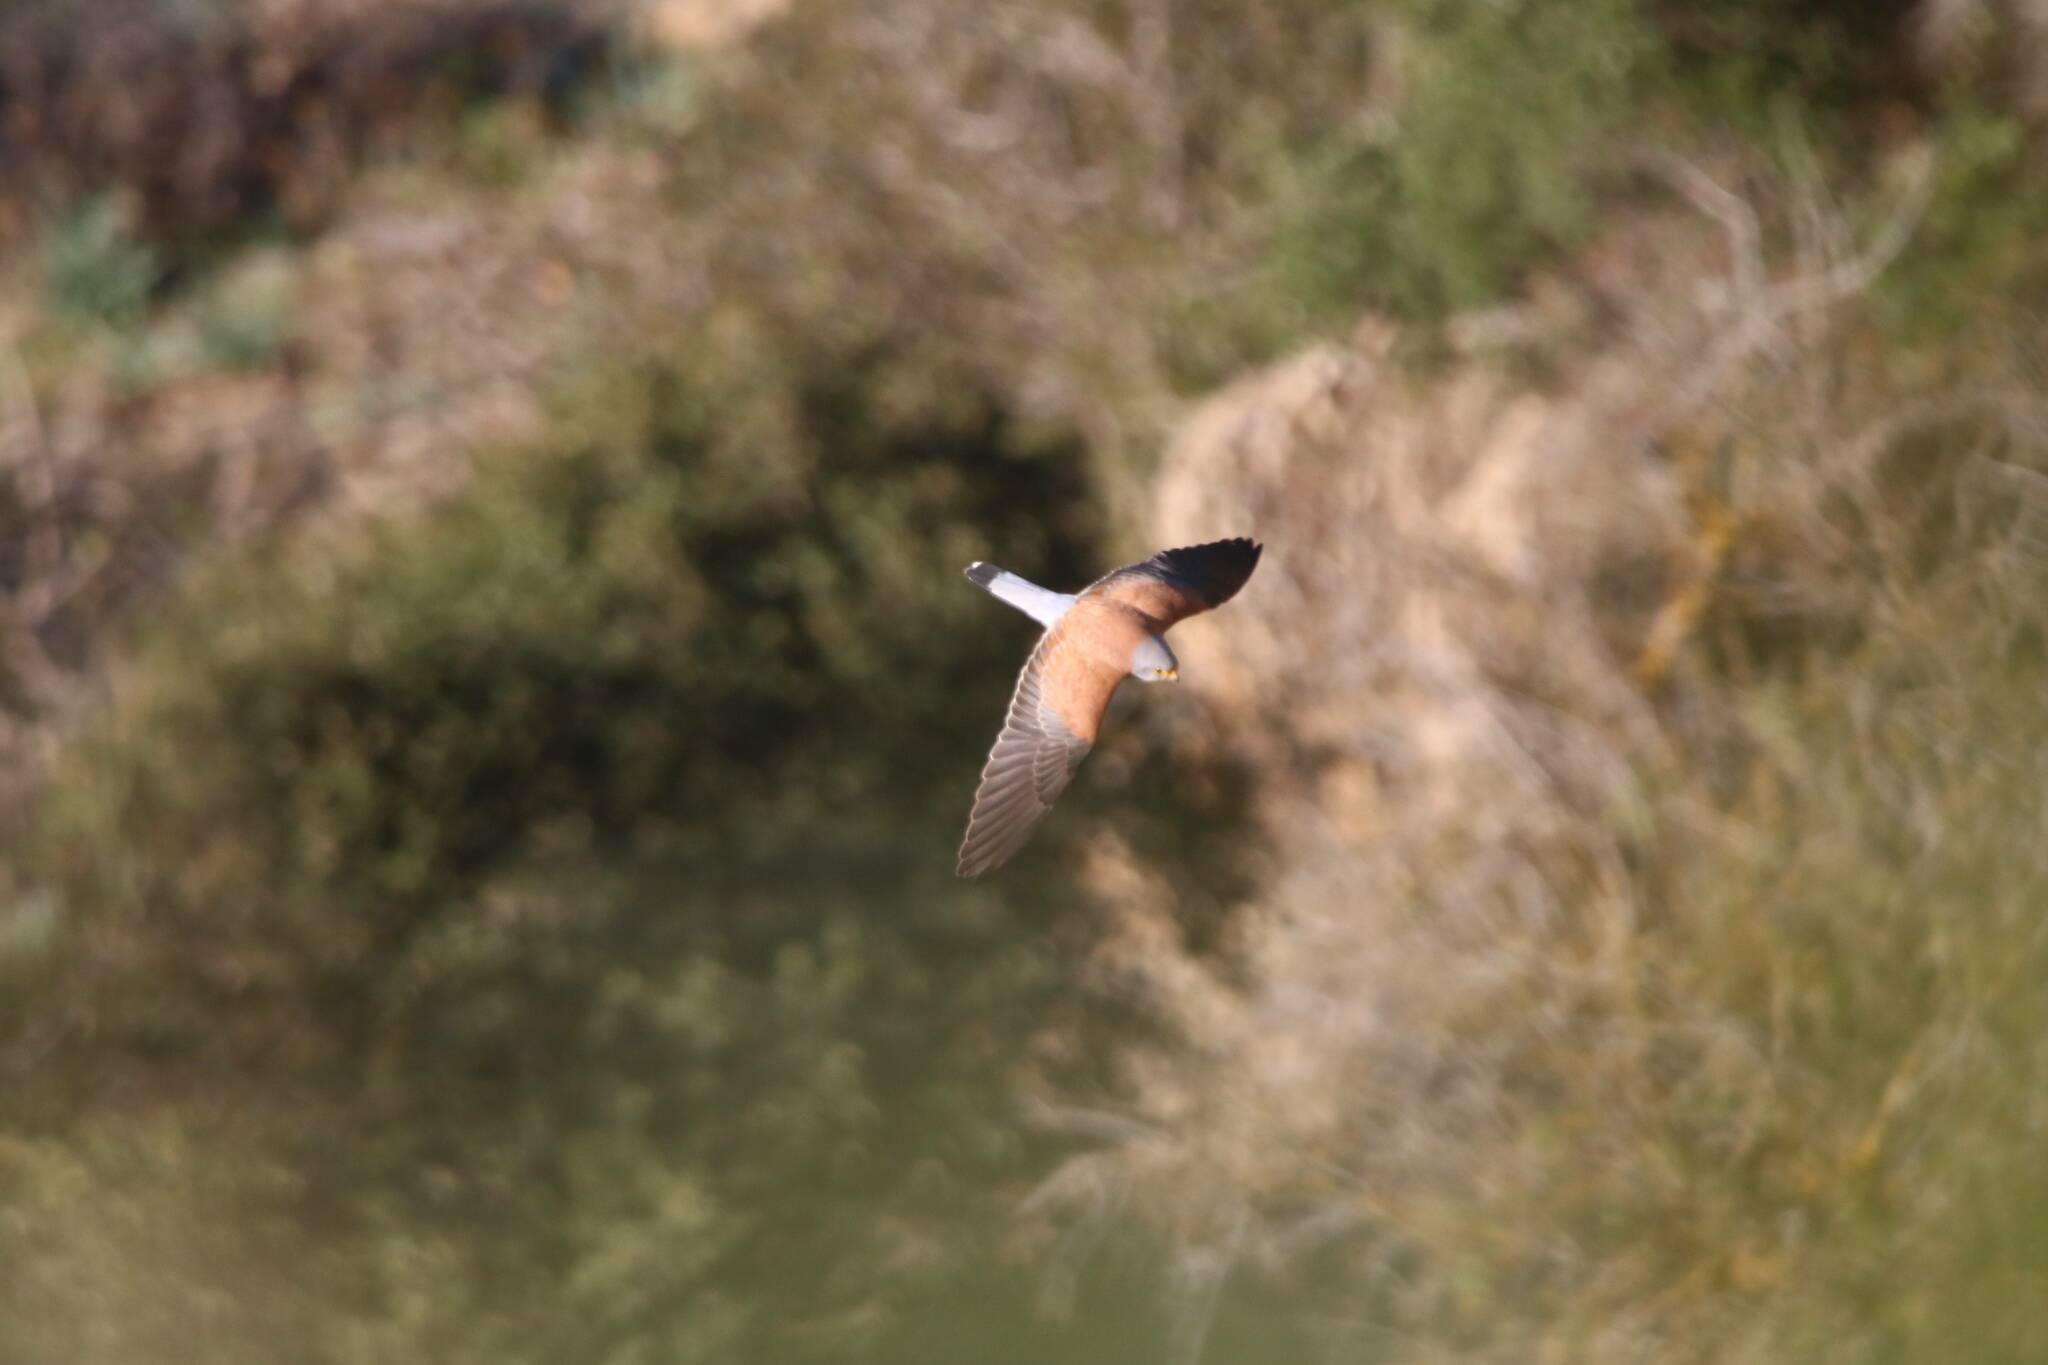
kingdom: Animalia
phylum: Chordata
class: Aves
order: Falconiformes
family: Falconidae
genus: Falco
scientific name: Falco naumanni
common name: Lesser kestrel
